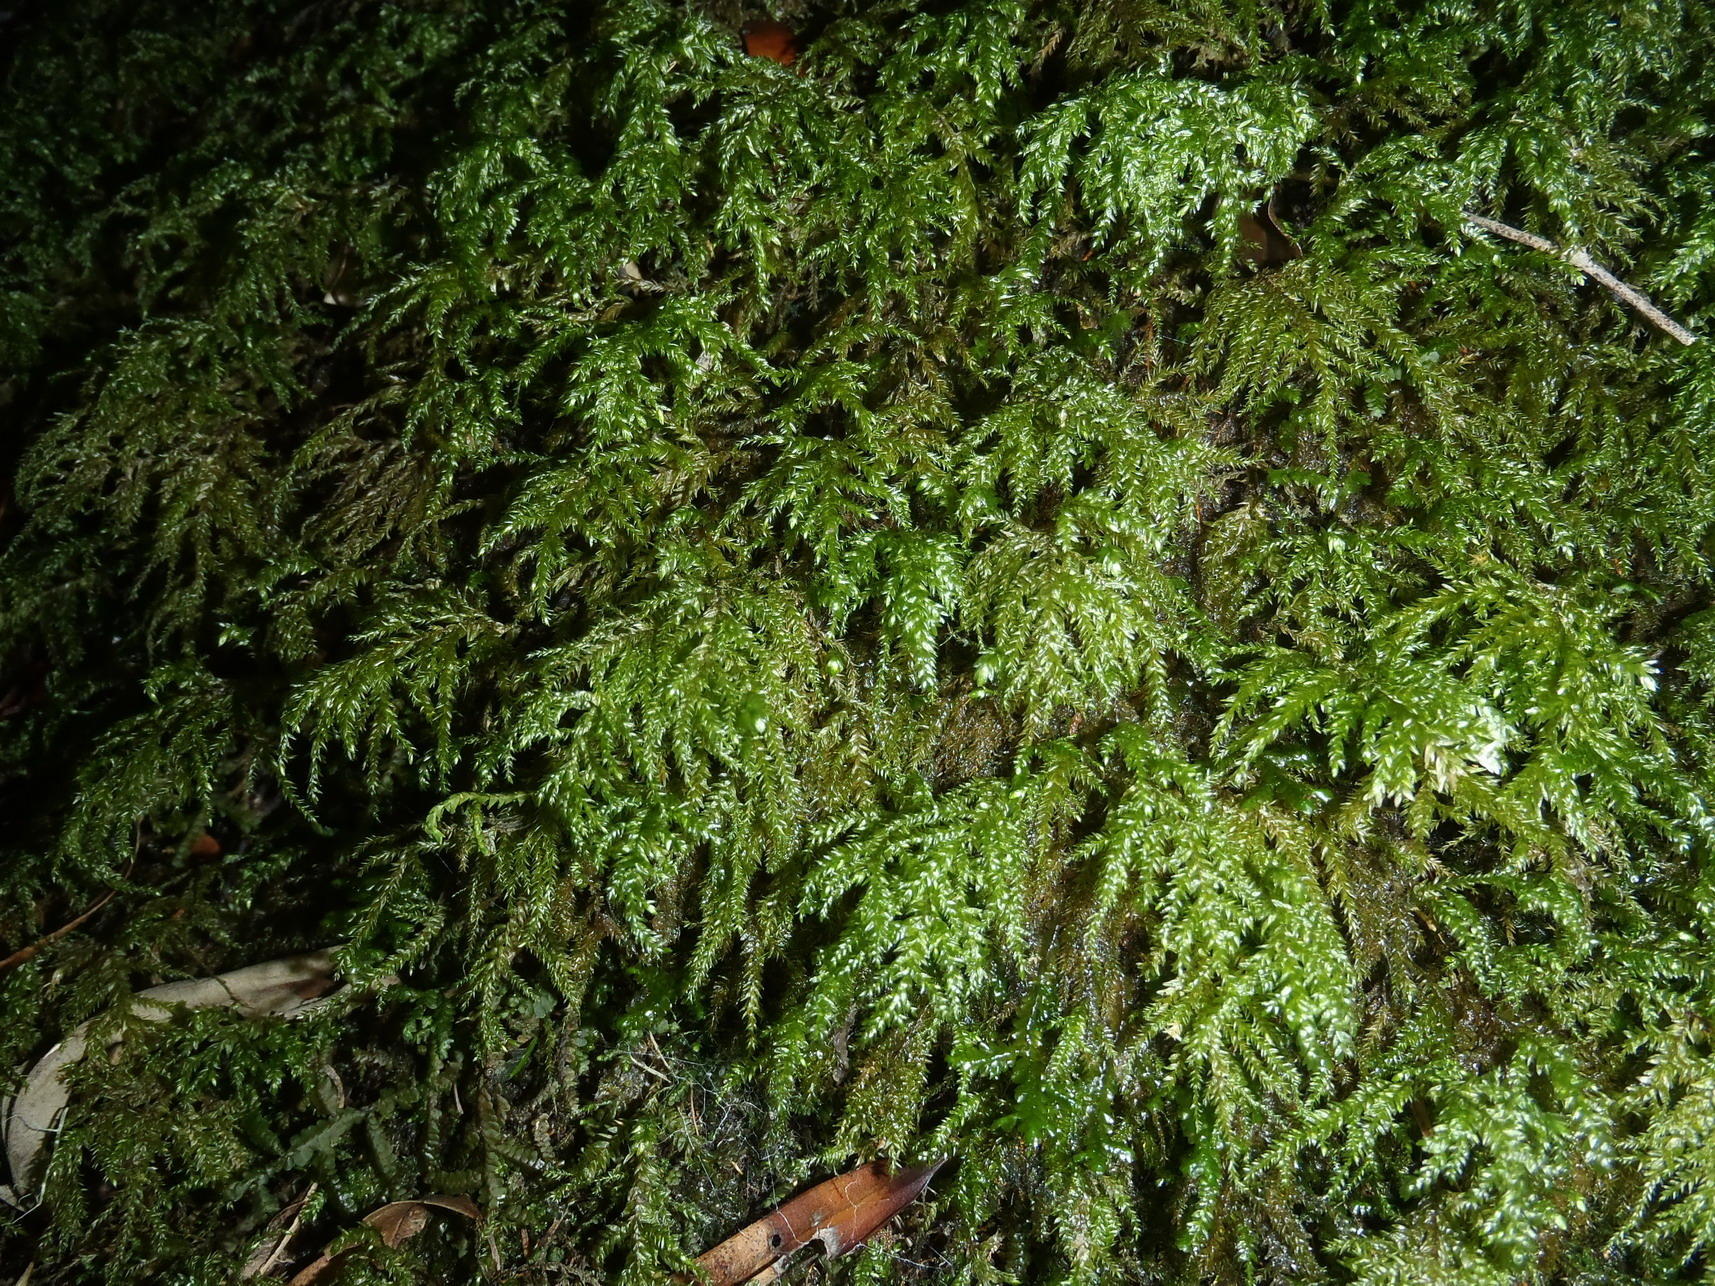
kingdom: Plantae
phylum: Bryophyta
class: Bryopsida
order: Hypnales
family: Neckeraceae
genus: Porotrichum
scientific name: Porotrichum madagassum
